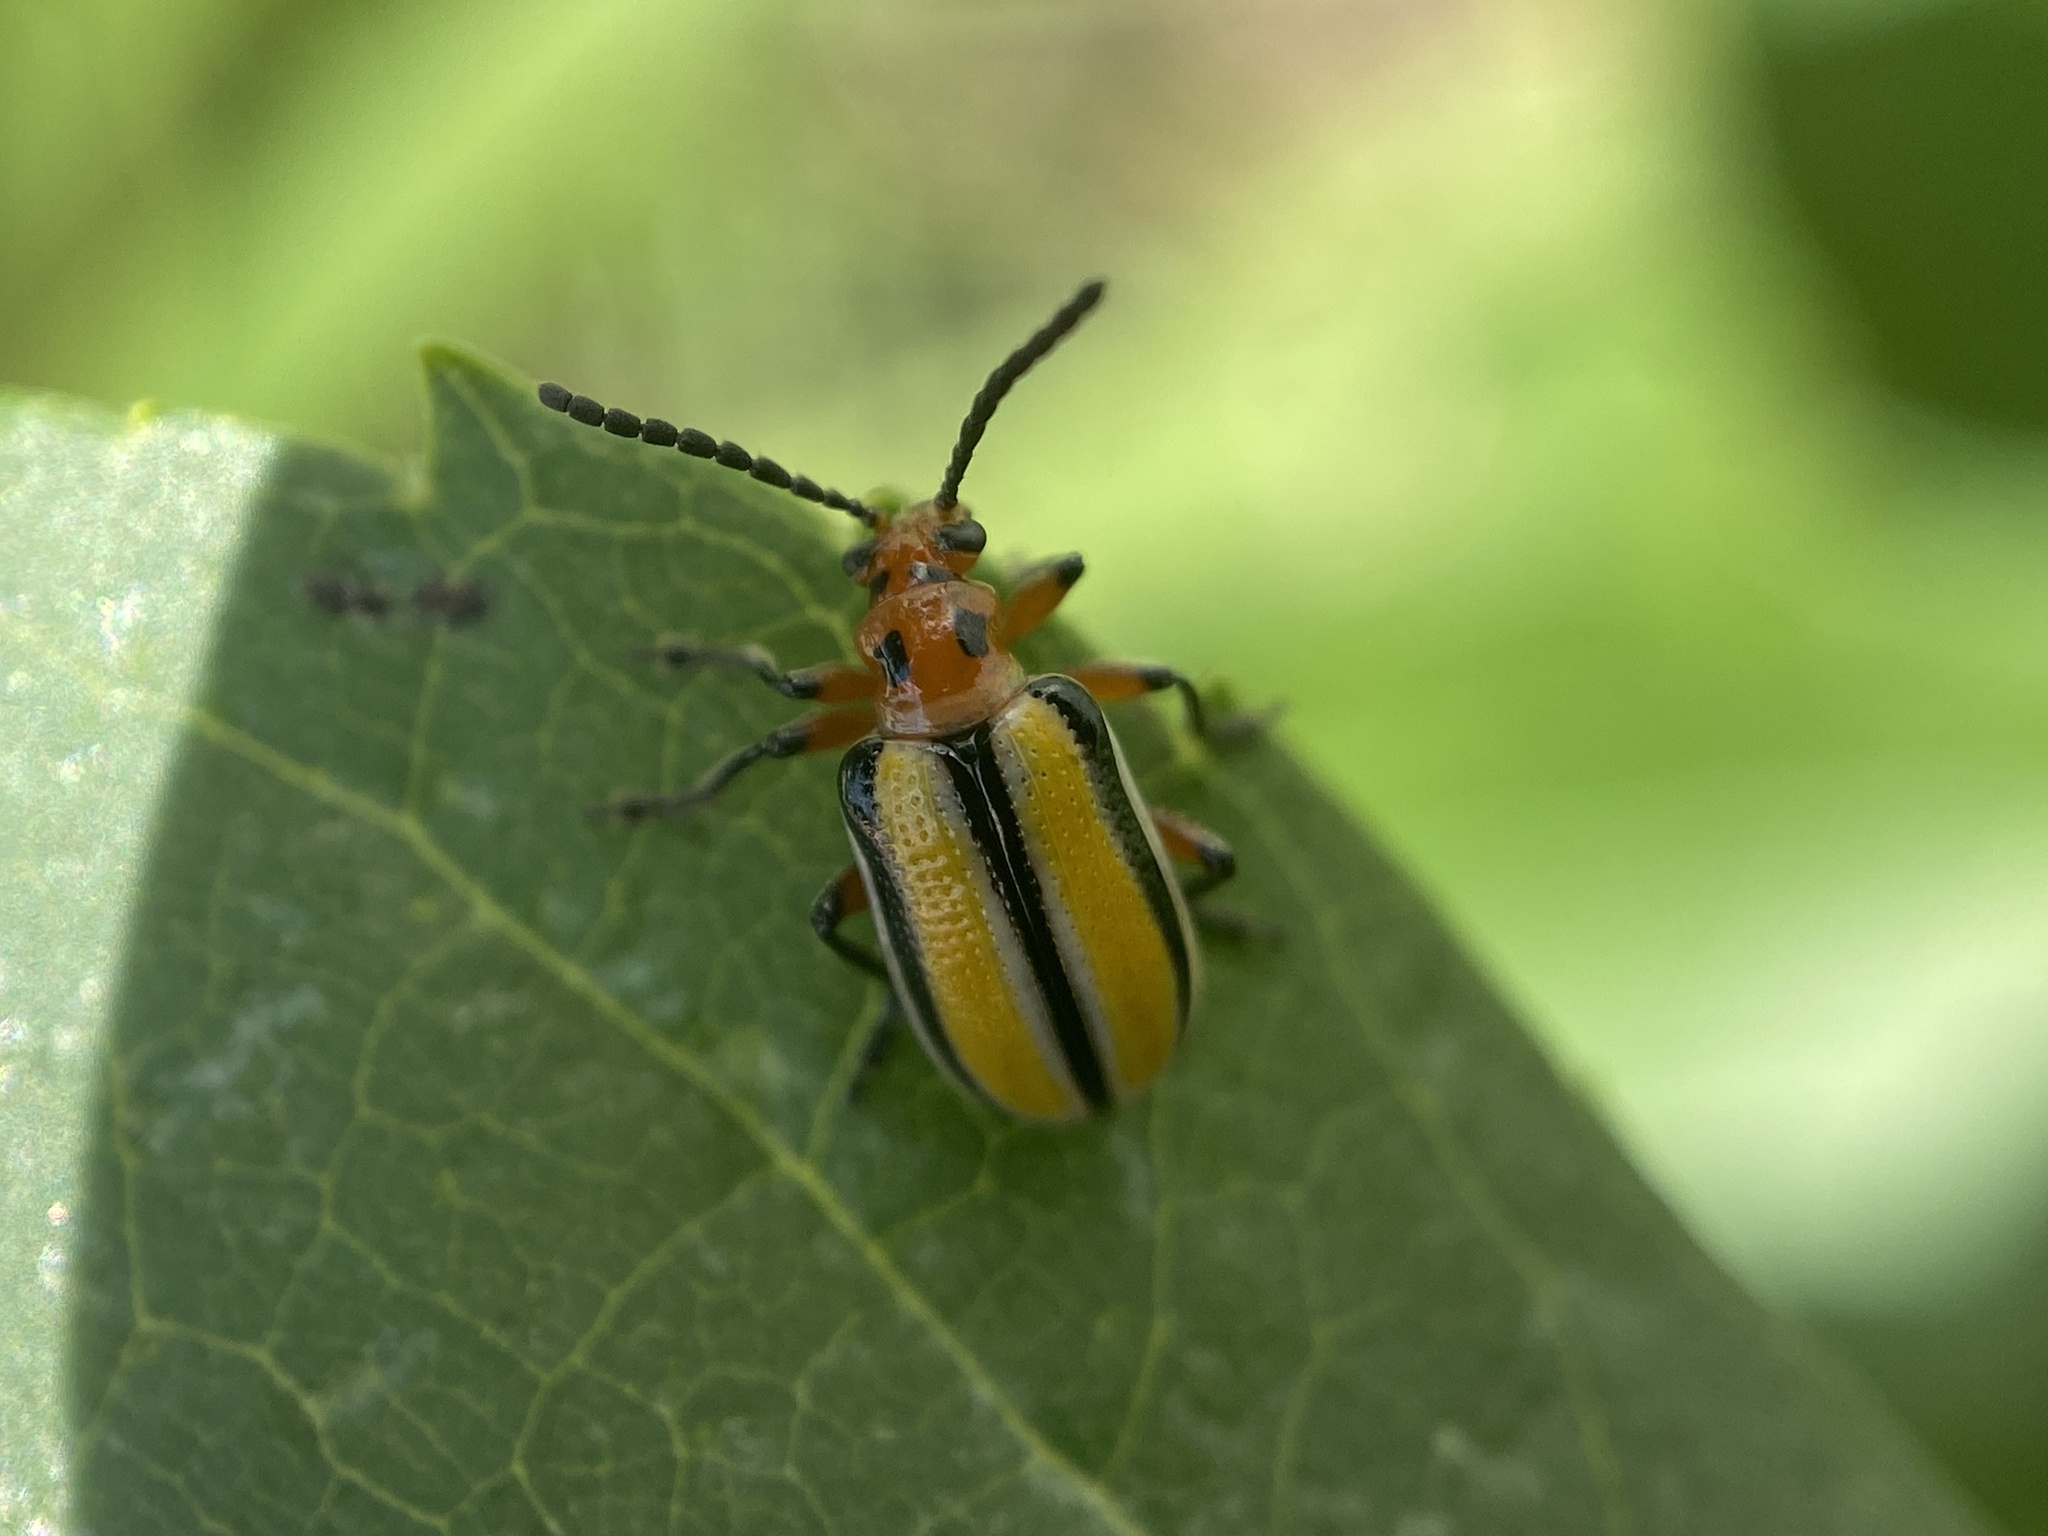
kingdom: Animalia
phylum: Arthropoda
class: Insecta
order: Coleoptera
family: Chrysomelidae
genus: Lema
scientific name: Lema daturaphila
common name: Leaf beetle
